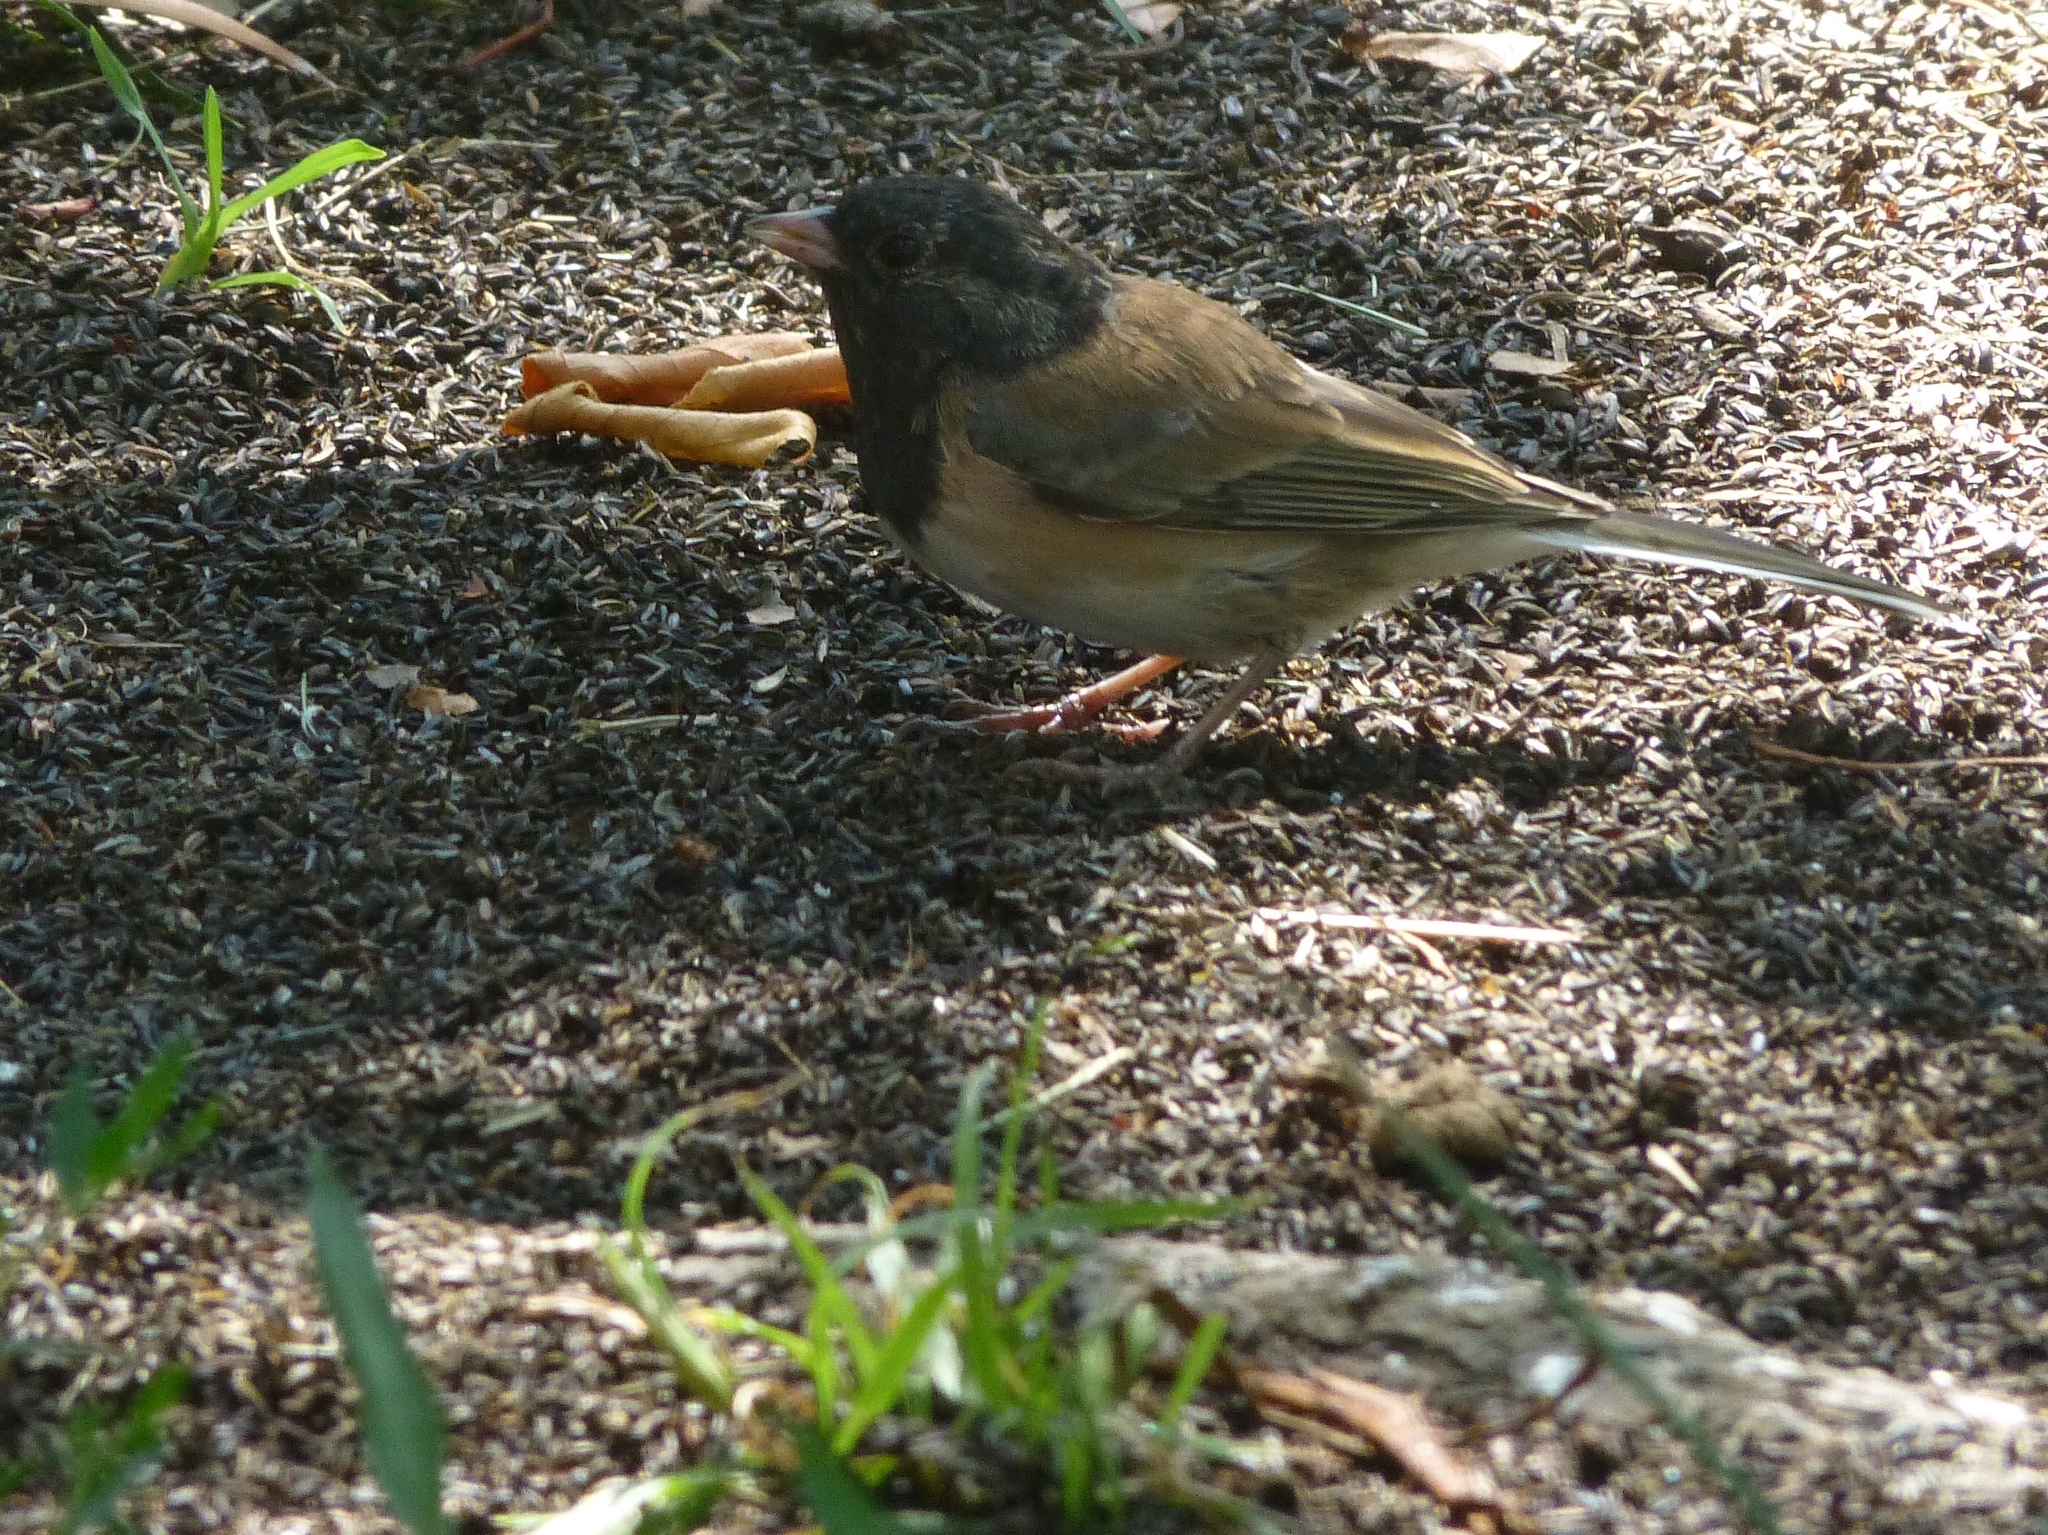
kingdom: Animalia
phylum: Chordata
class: Aves
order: Passeriformes
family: Passerellidae
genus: Junco
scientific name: Junco hyemalis
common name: Dark-eyed junco
